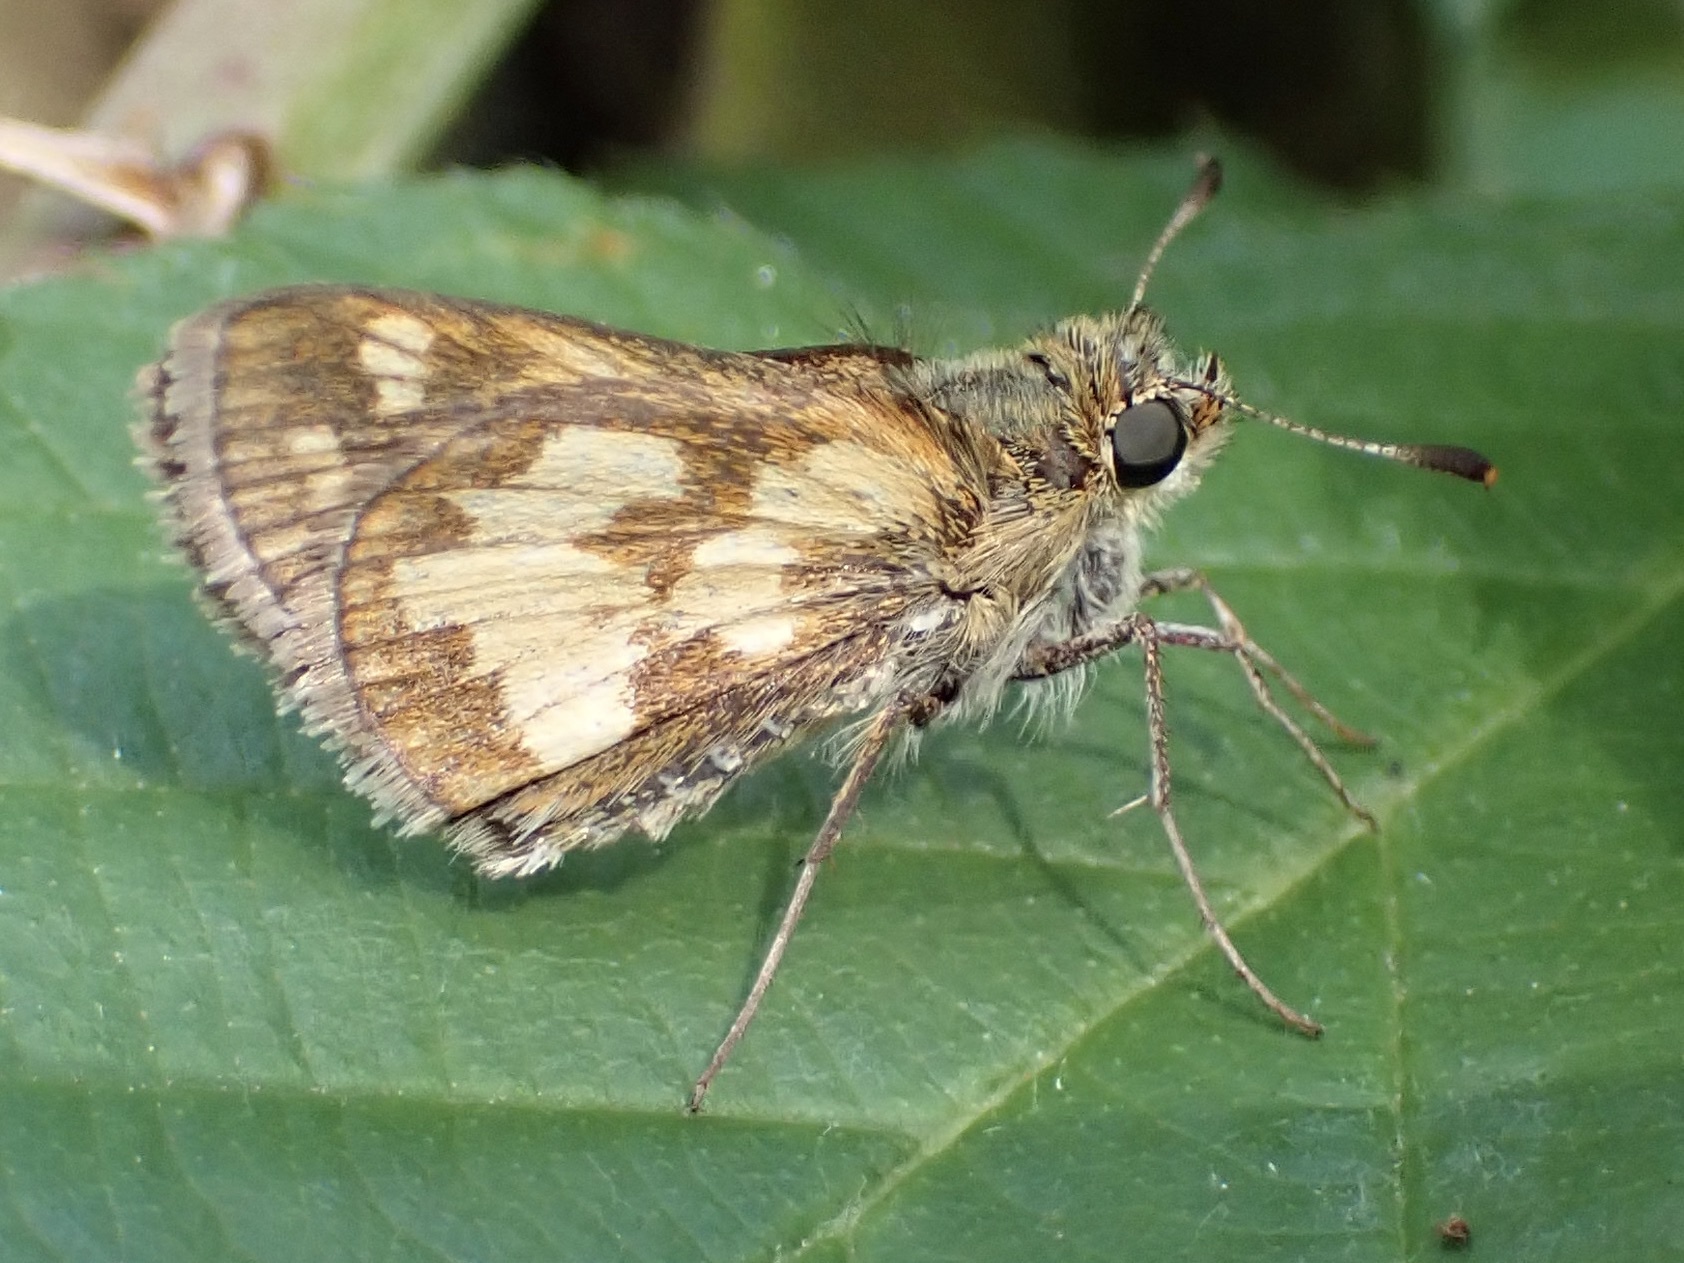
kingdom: Animalia
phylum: Arthropoda
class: Insecta
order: Lepidoptera
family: Hesperiidae
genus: Polites
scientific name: Polites coras
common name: Peck's skipper
